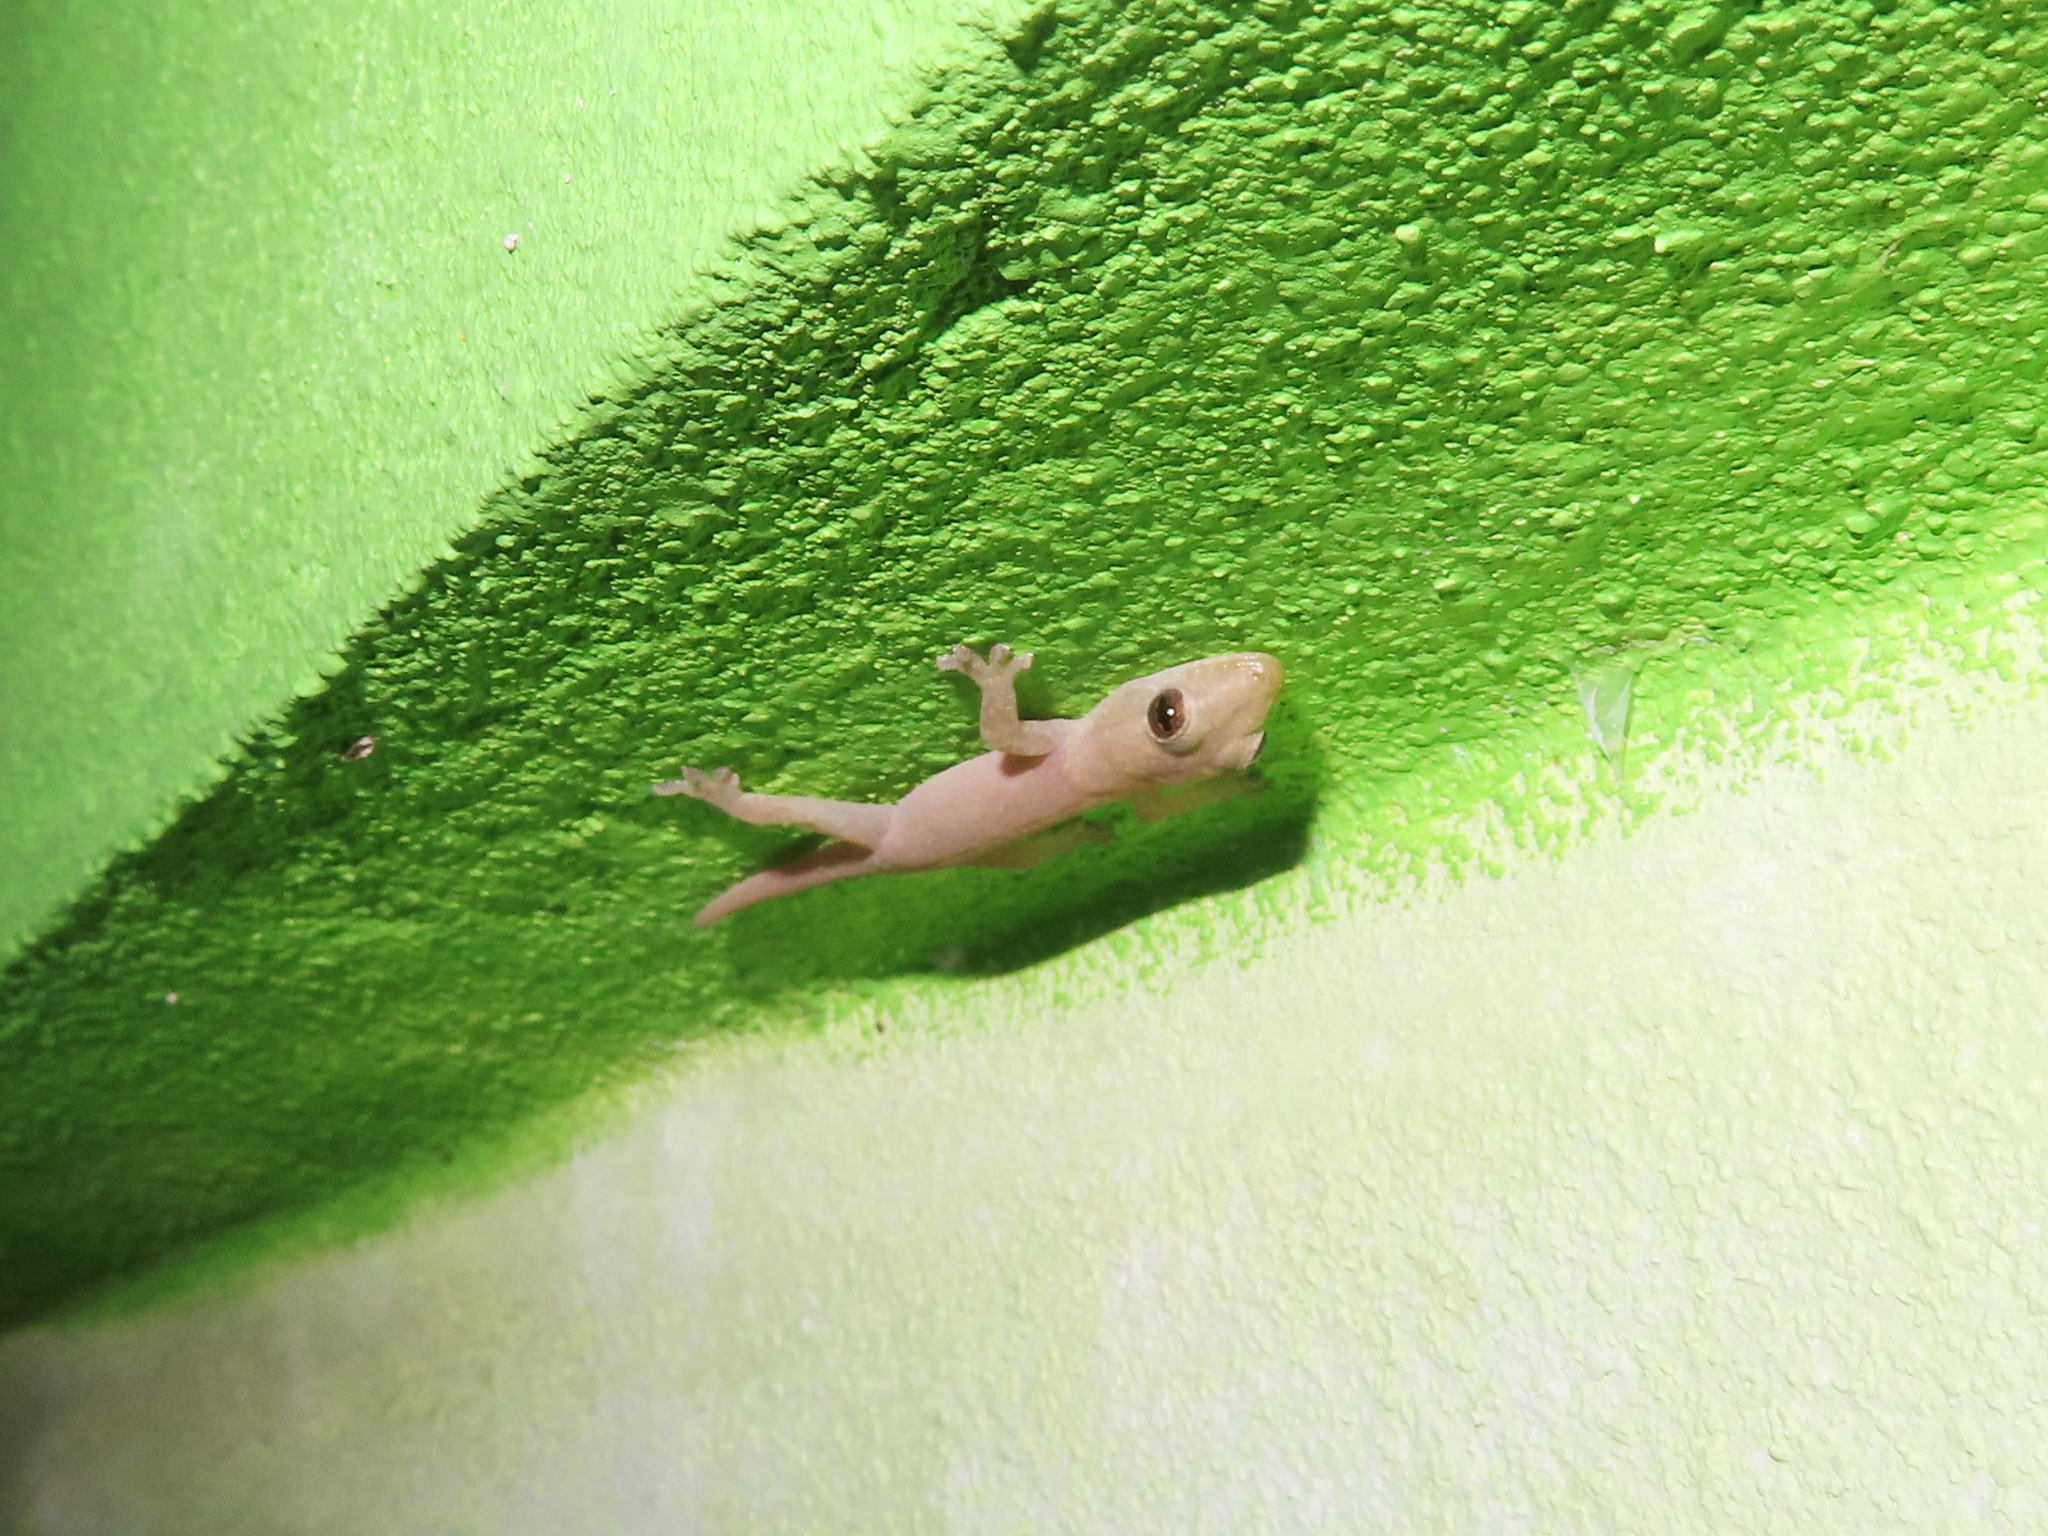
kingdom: Animalia
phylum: Chordata
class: Squamata
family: Gekkonidae
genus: Hemidactylus
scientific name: Hemidactylus frenatus
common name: Common house gecko
